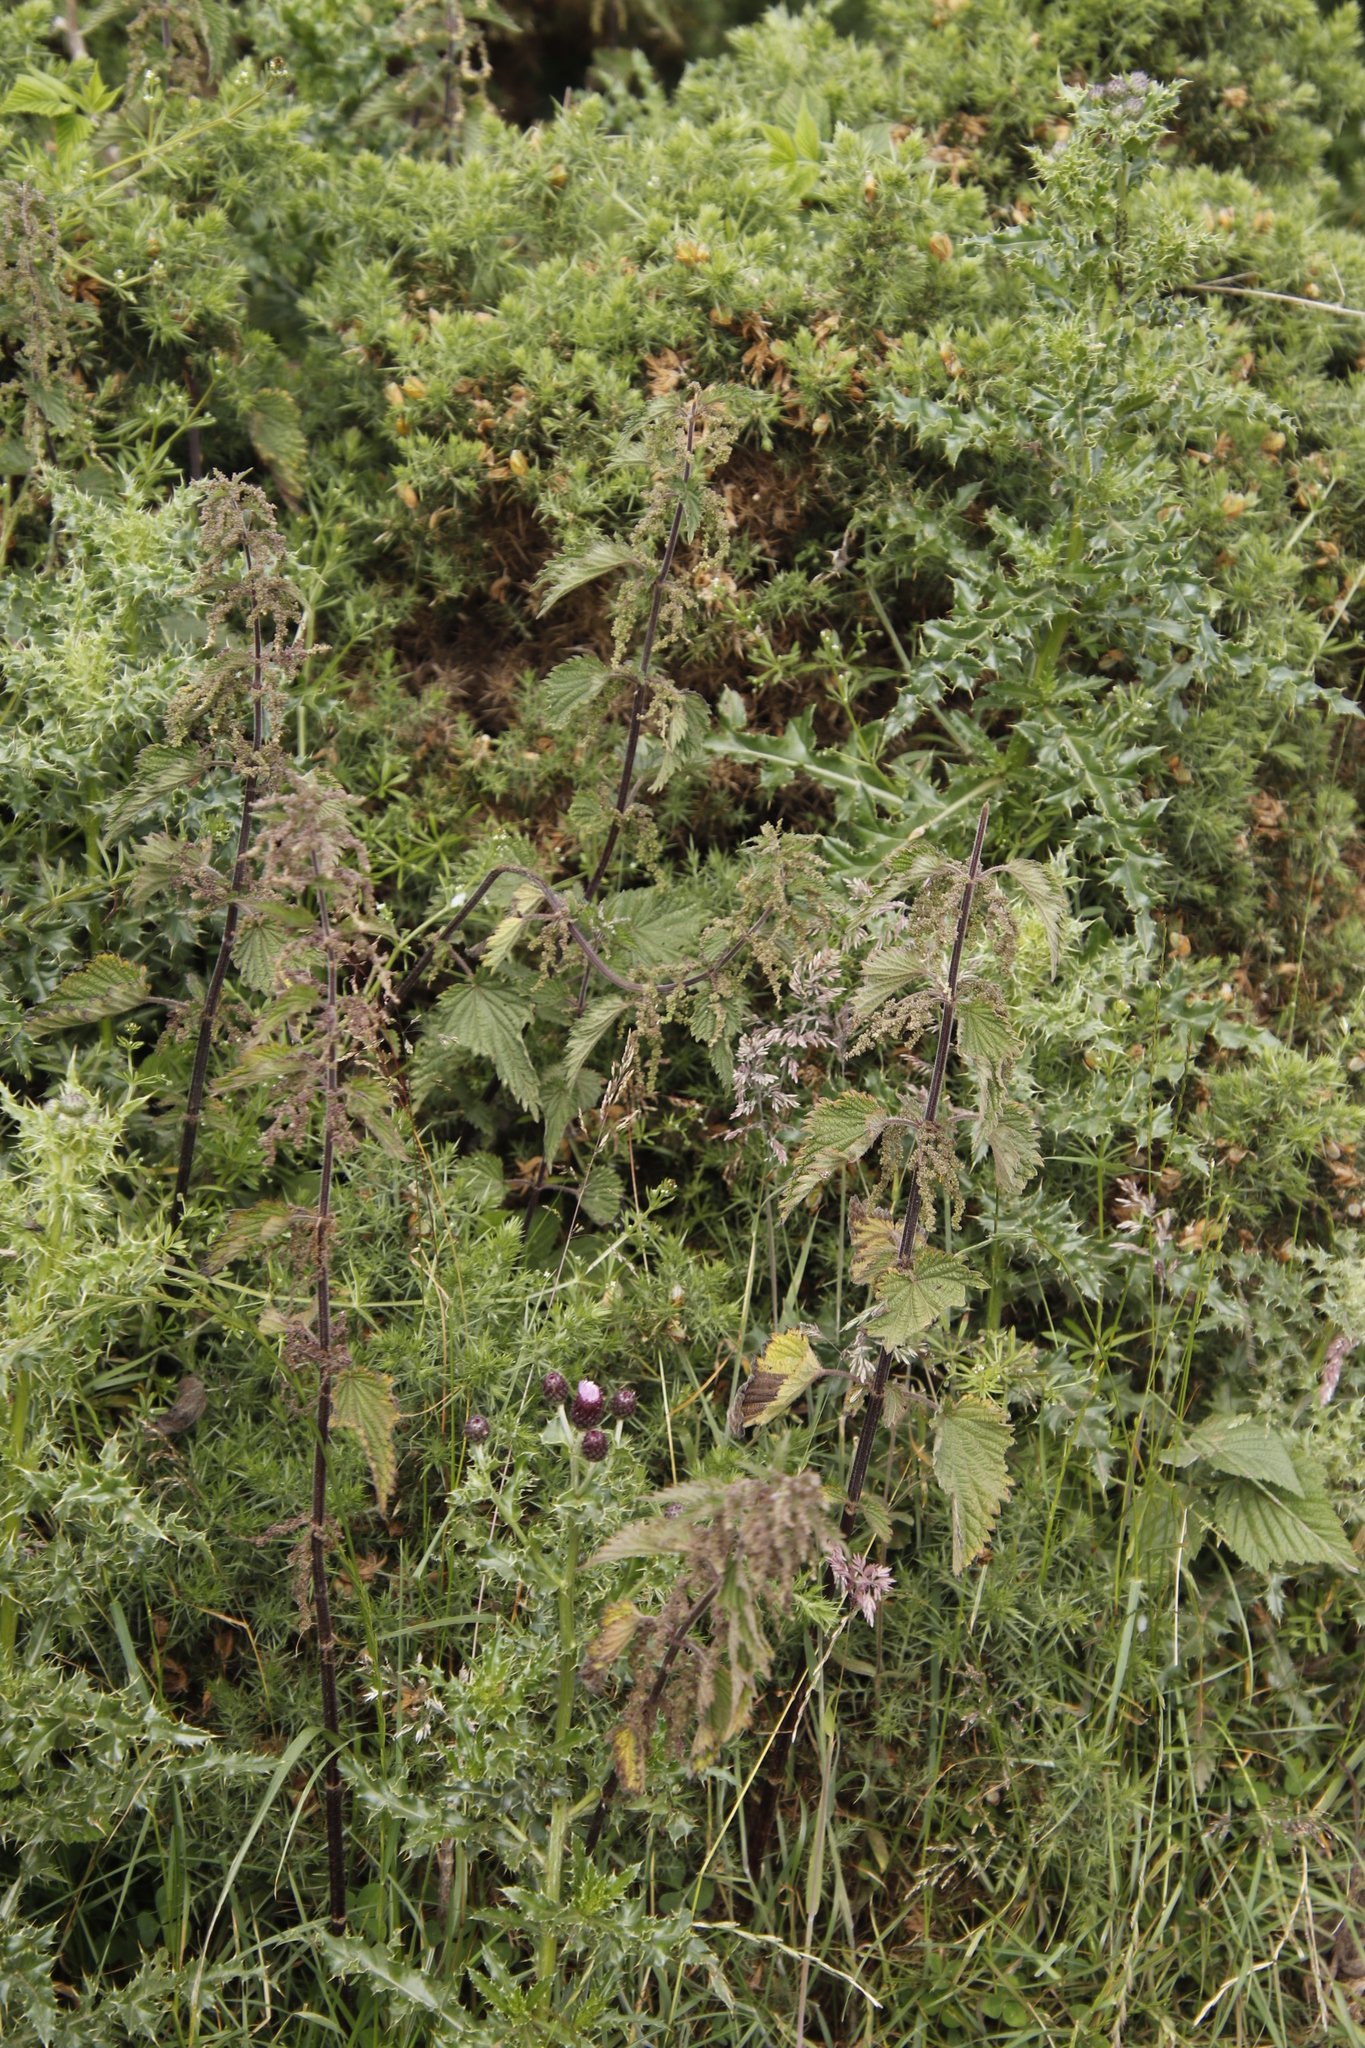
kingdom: Plantae
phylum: Tracheophyta
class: Magnoliopsida
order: Rosales
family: Urticaceae
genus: Urtica
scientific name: Urtica dioica
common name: Common nettle
